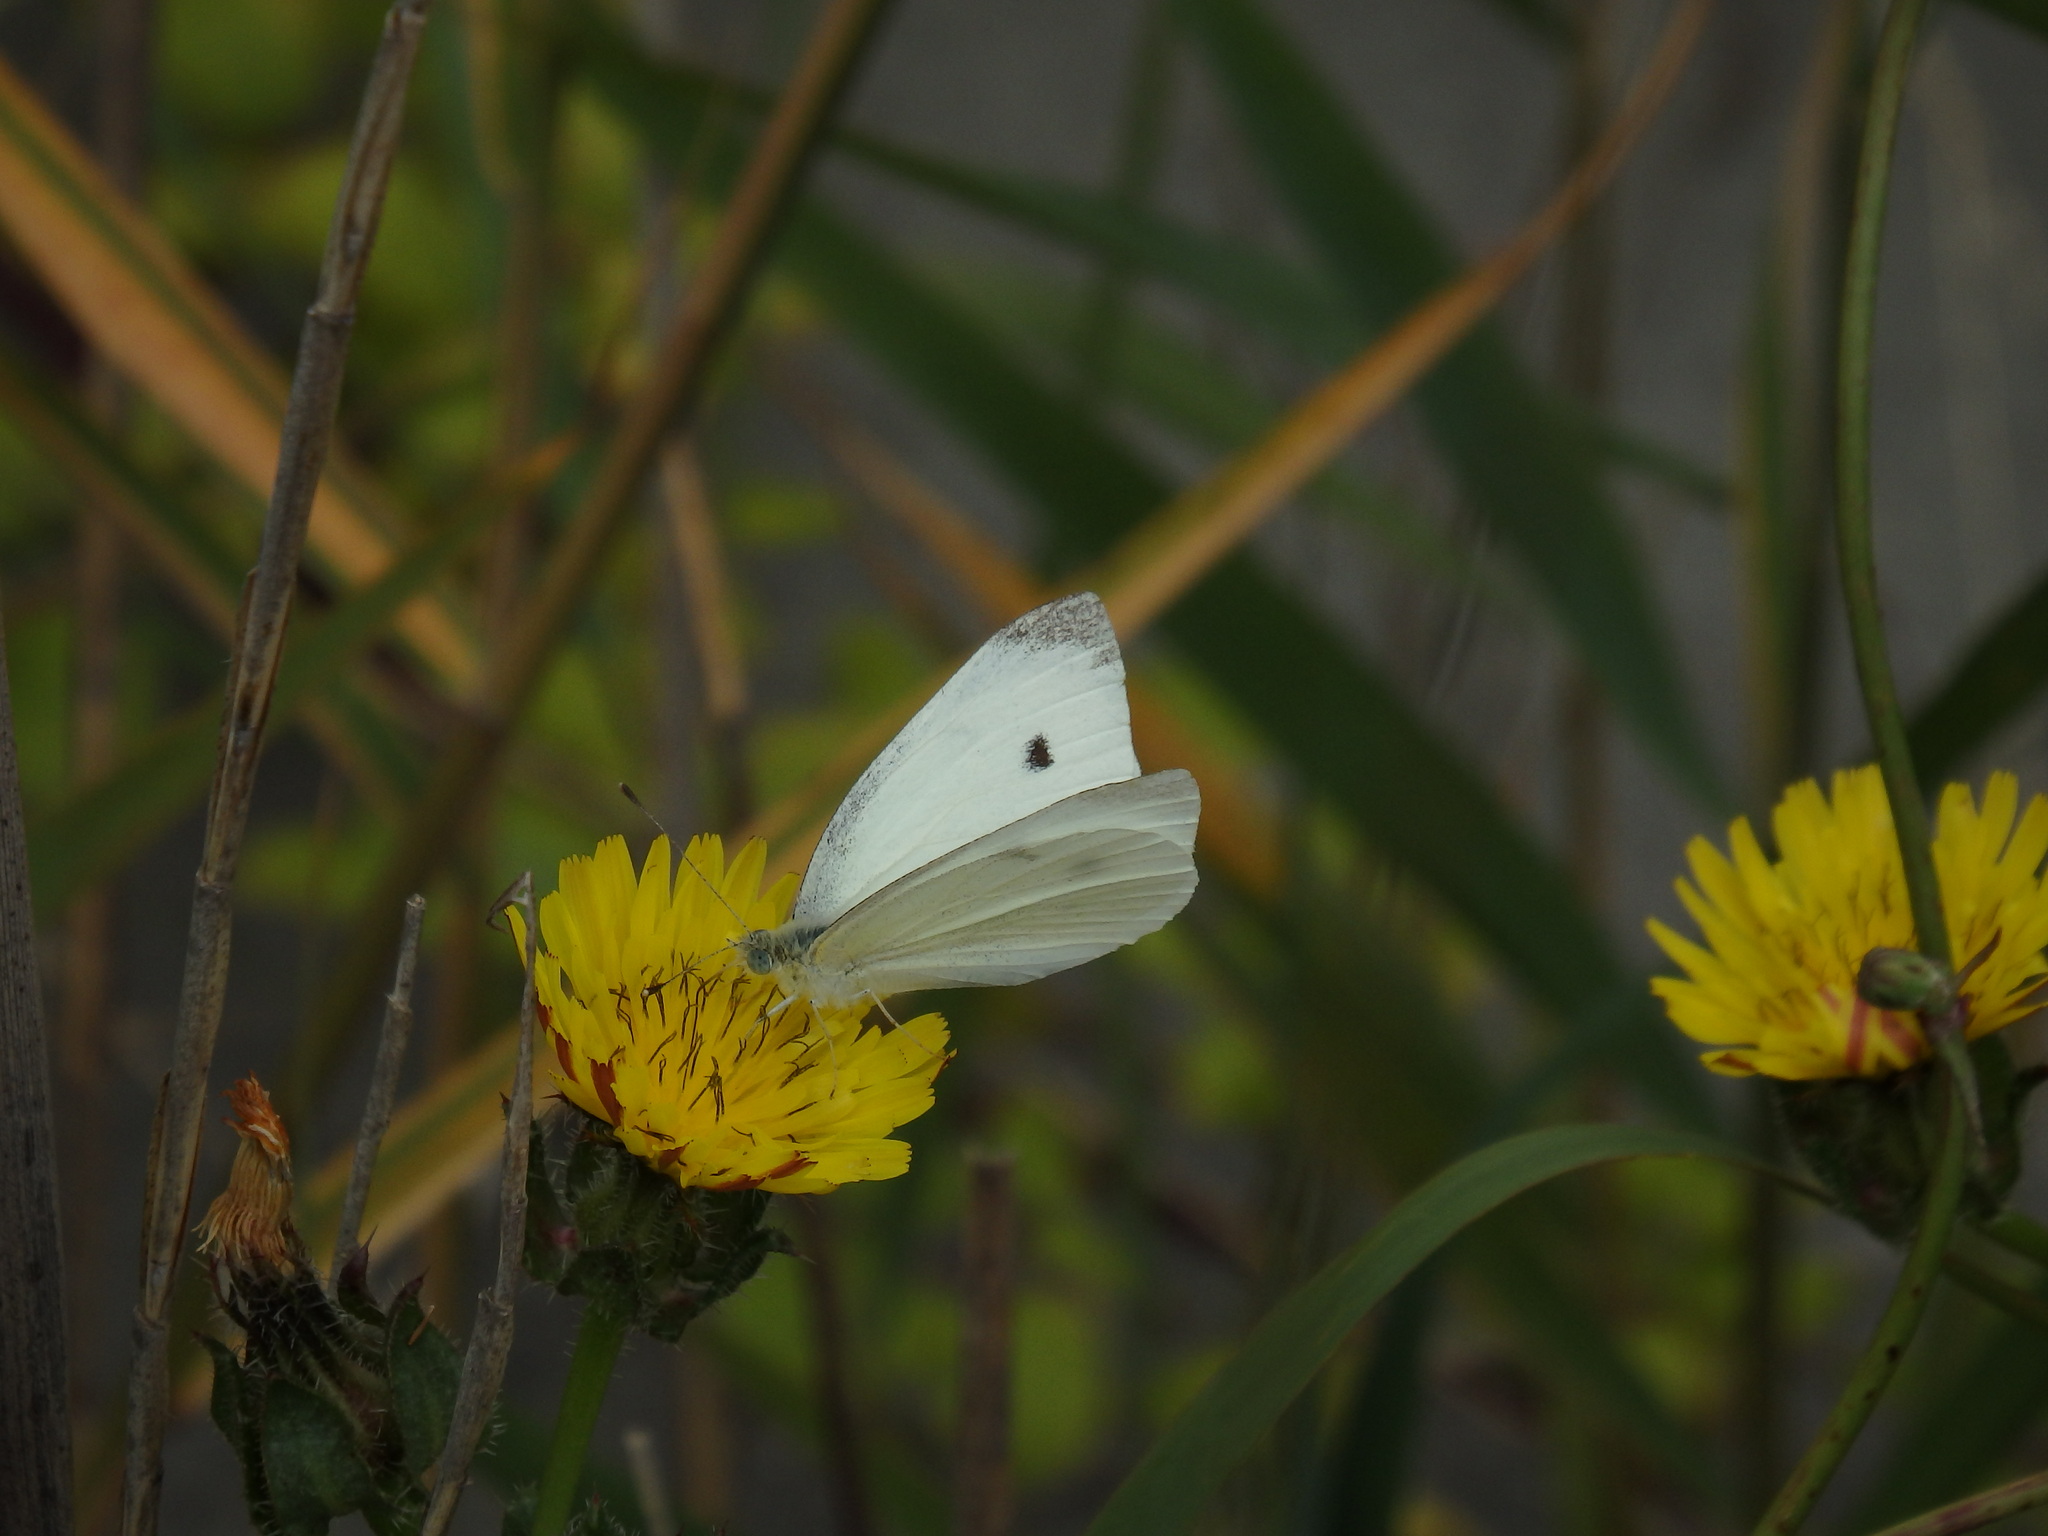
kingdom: Animalia
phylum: Arthropoda
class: Insecta
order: Lepidoptera
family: Pieridae
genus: Pieris
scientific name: Pieris rapae
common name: Small white
